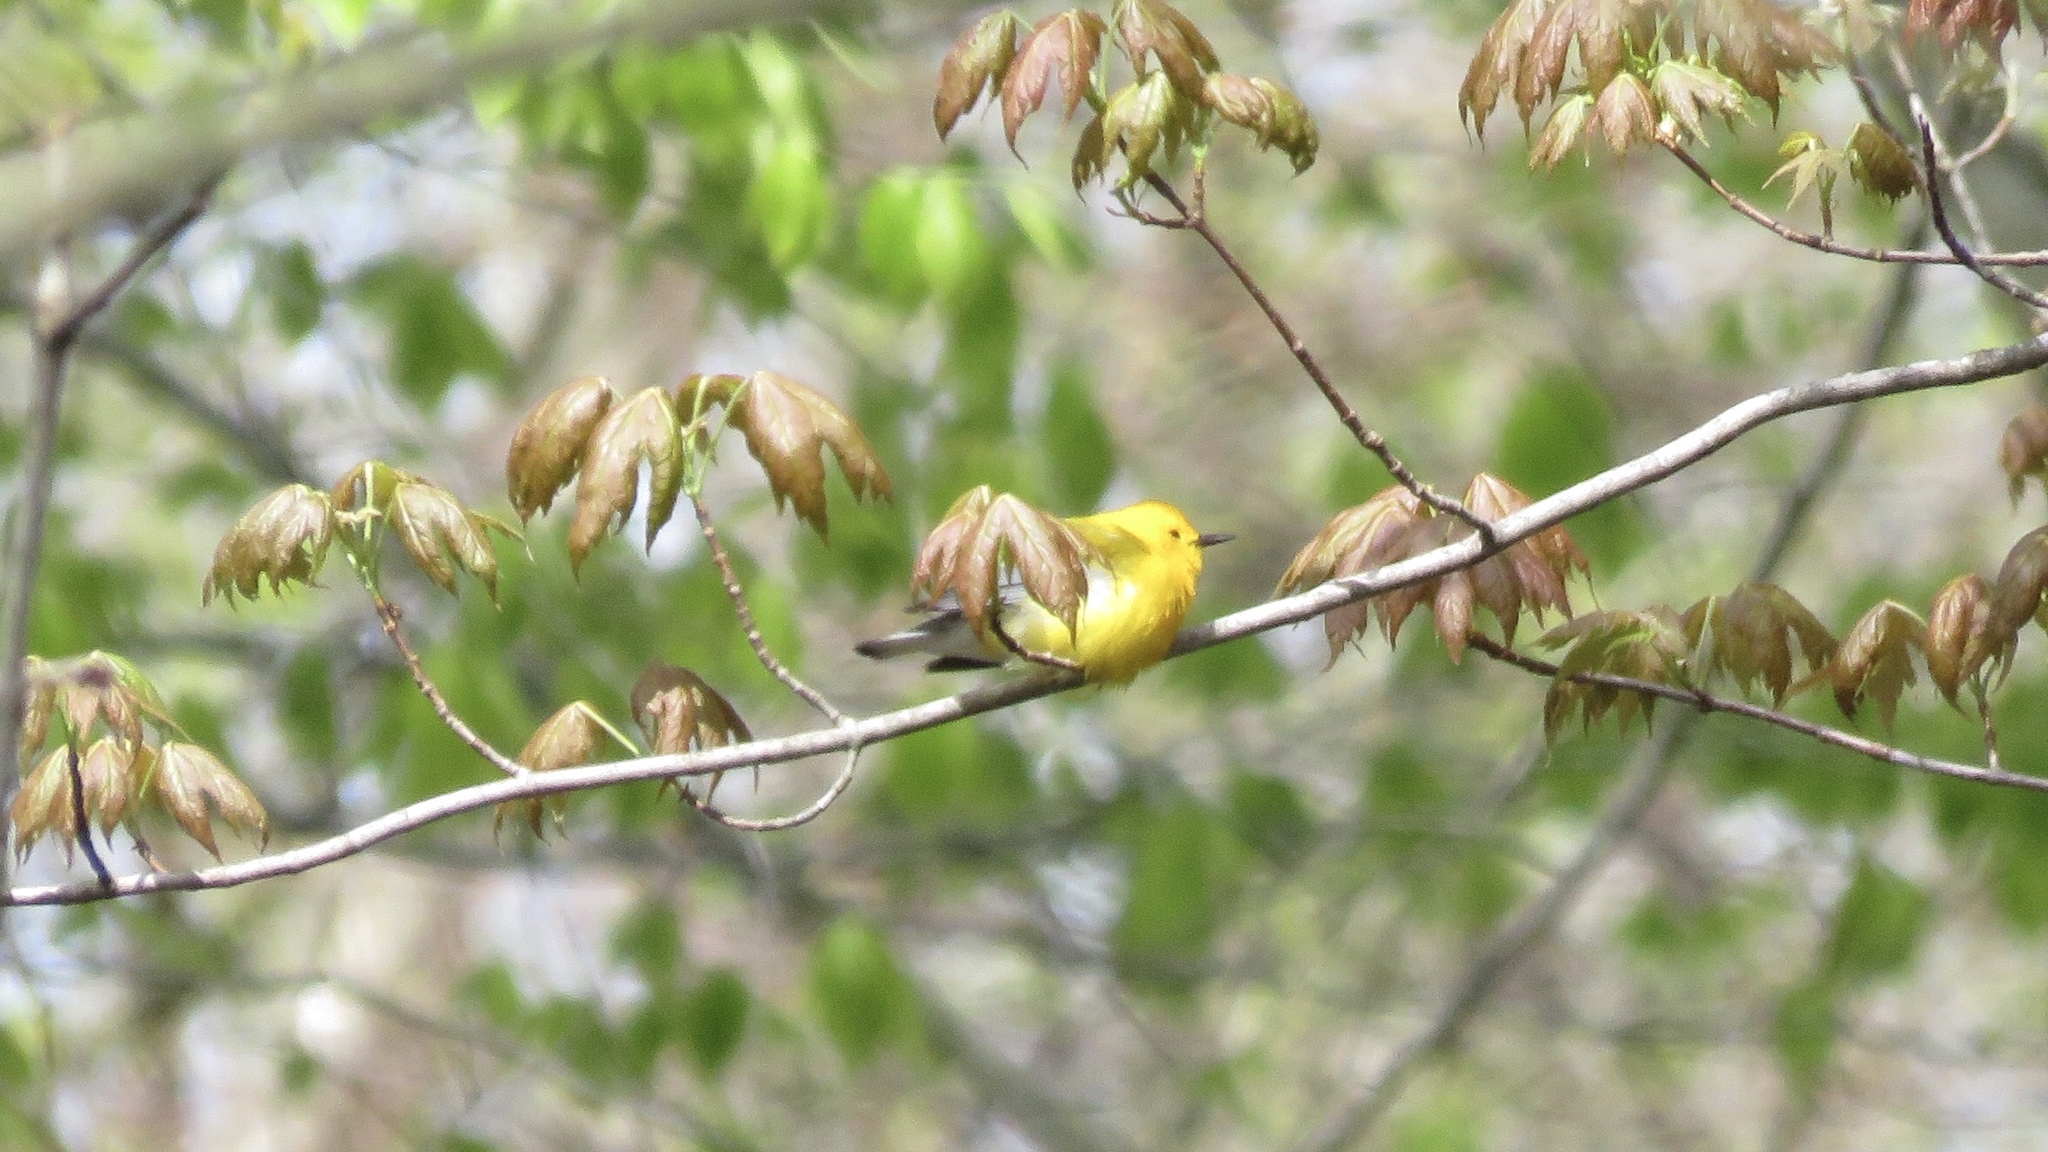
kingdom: Animalia
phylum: Chordata
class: Aves
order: Passeriformes
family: Parulidae
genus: Protonotaria
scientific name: Protonotaria citrea
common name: Prothonotary warbler
